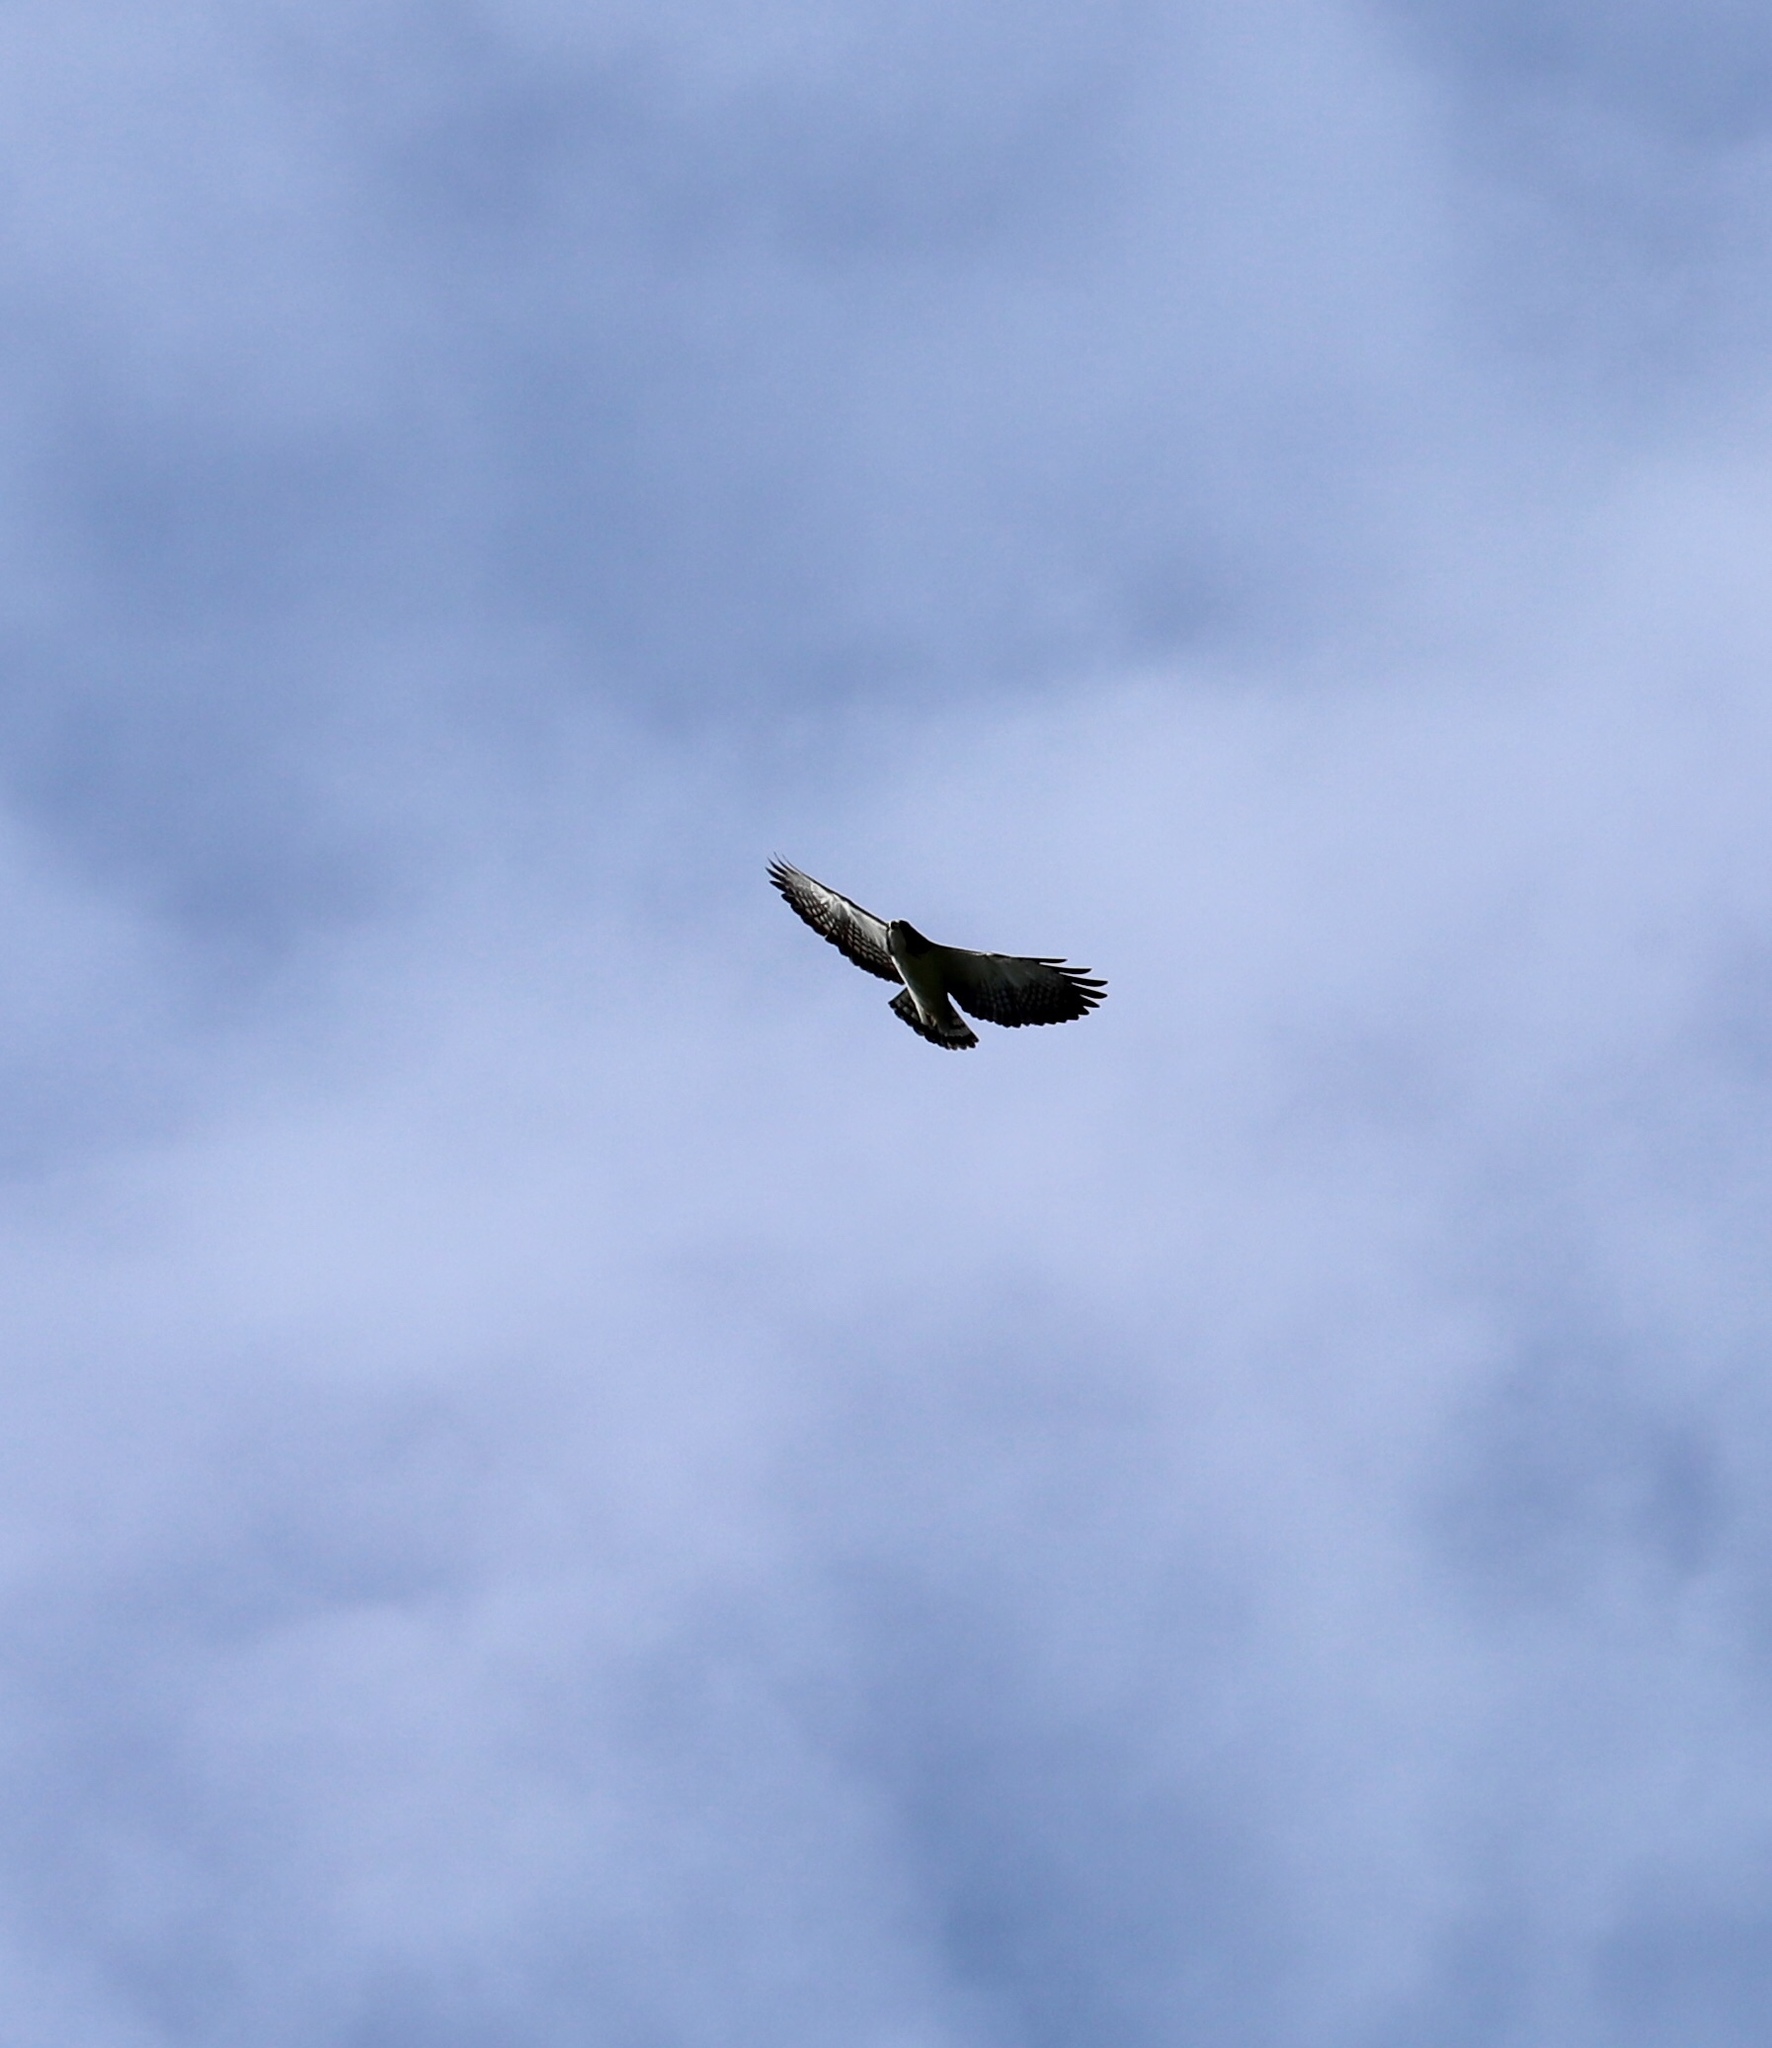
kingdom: Animalia
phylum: Chordata
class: Aves
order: Accipitriformes
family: Accipitridae
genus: Buteo
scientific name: Buteo brachyurus
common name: Short-tailed hawk
